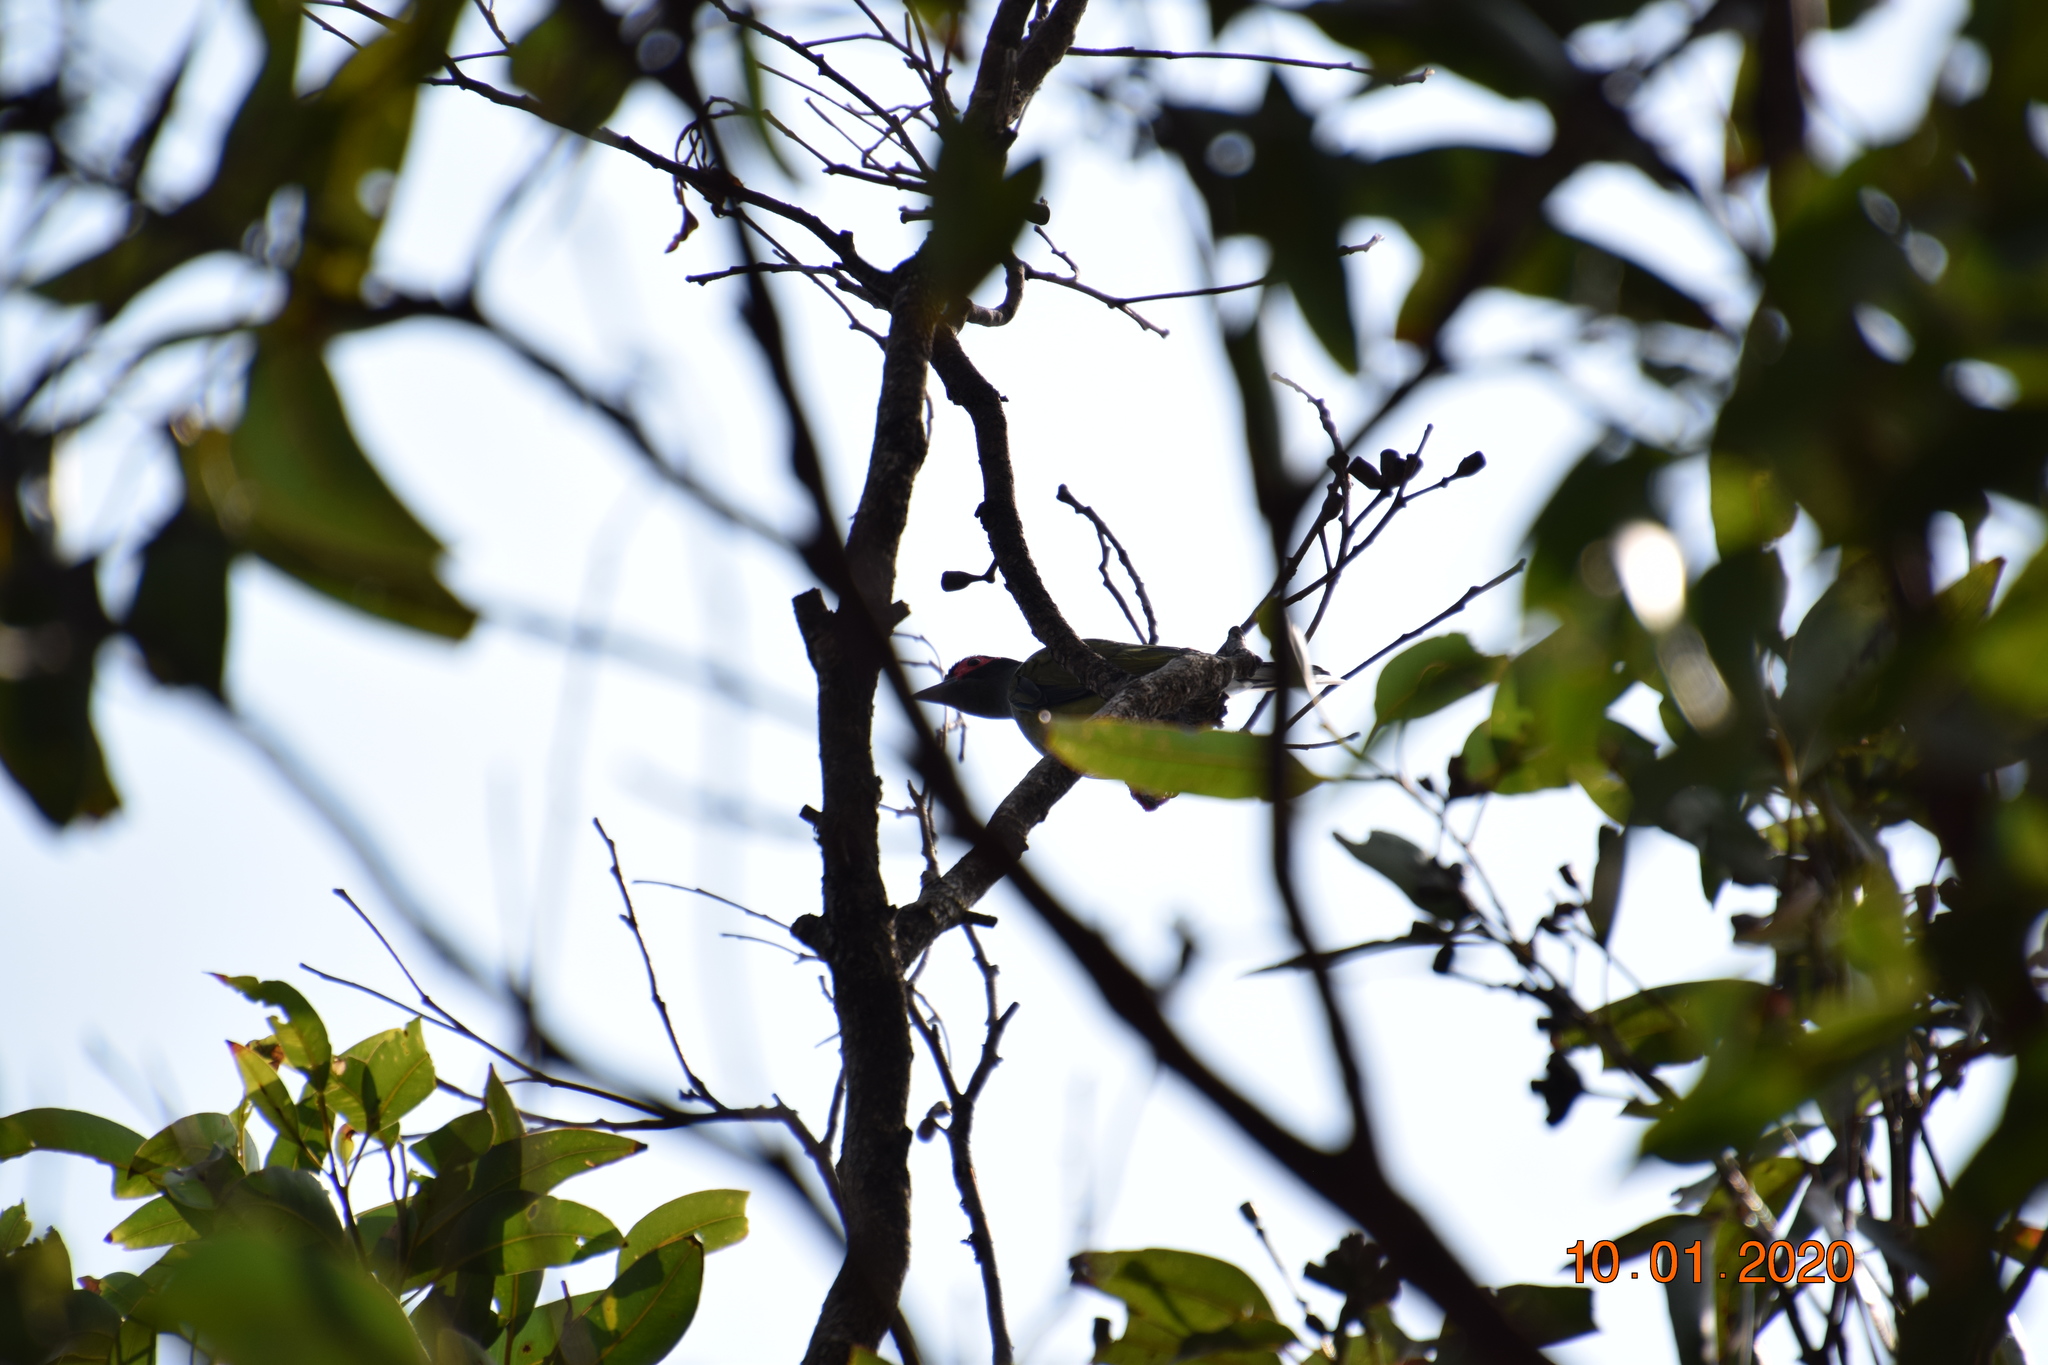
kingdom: Animalia
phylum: Chordata
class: Aves
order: Passeriformes
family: Oriolidae
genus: Sphecotheres
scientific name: Sphecotheres vieilloti
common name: Australasian figbird
